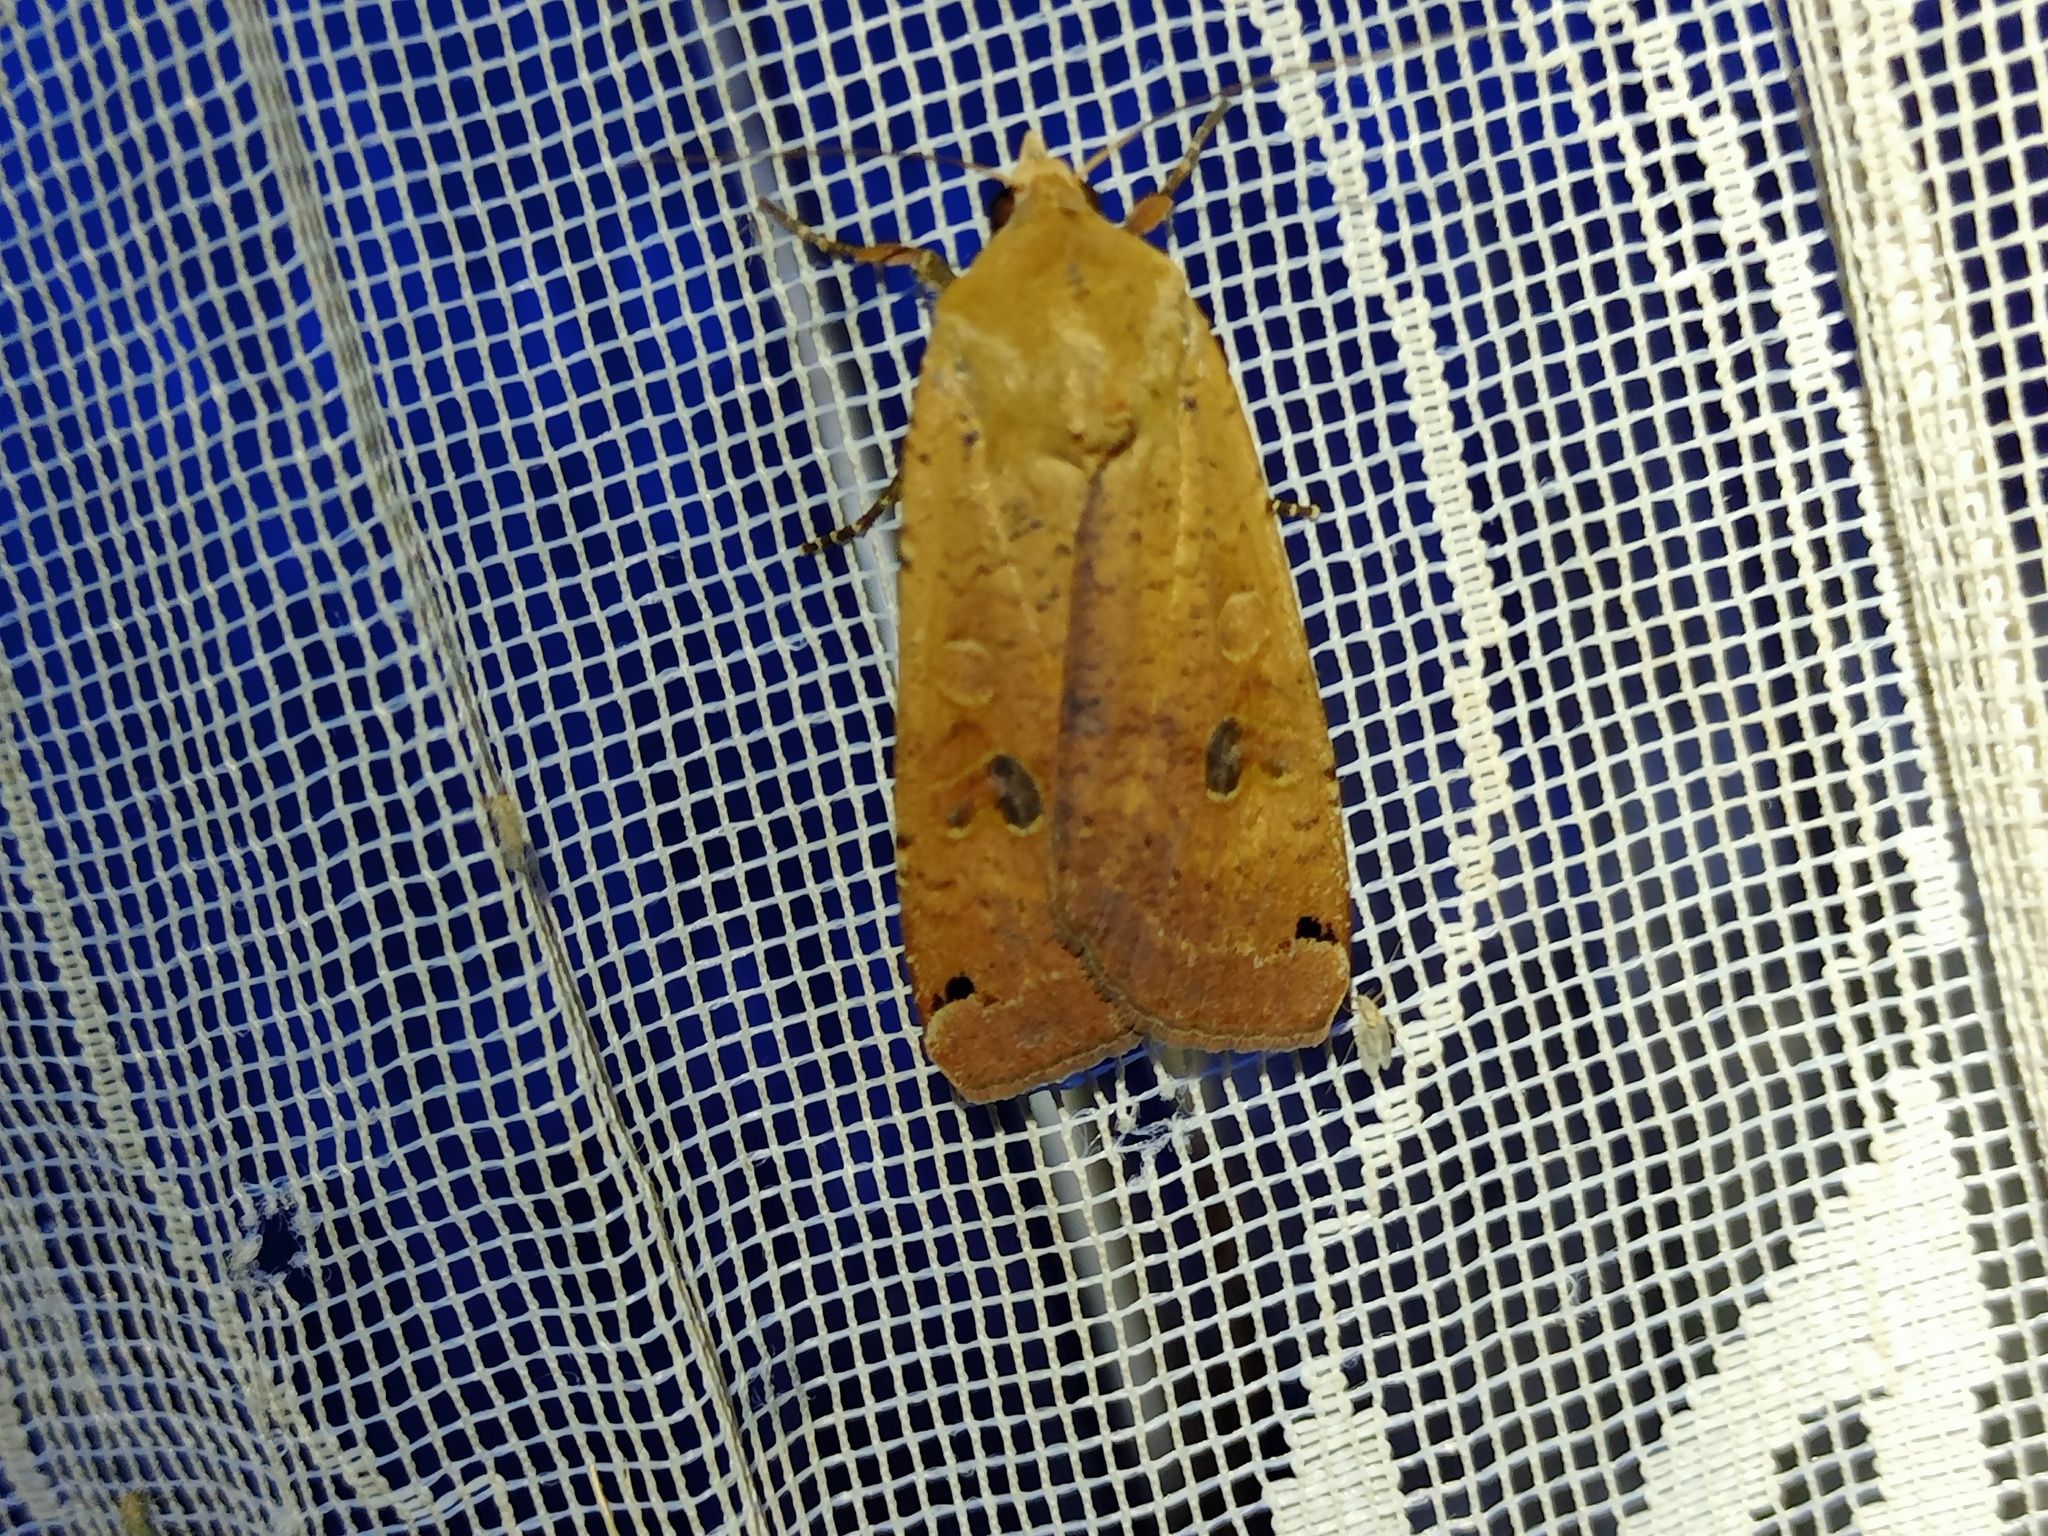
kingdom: Animalia
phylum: Arthropoda
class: Insecta
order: Lepidoptera
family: Noctuidae
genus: Noctua
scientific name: Noctua pronuba
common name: Large yellow underwing
